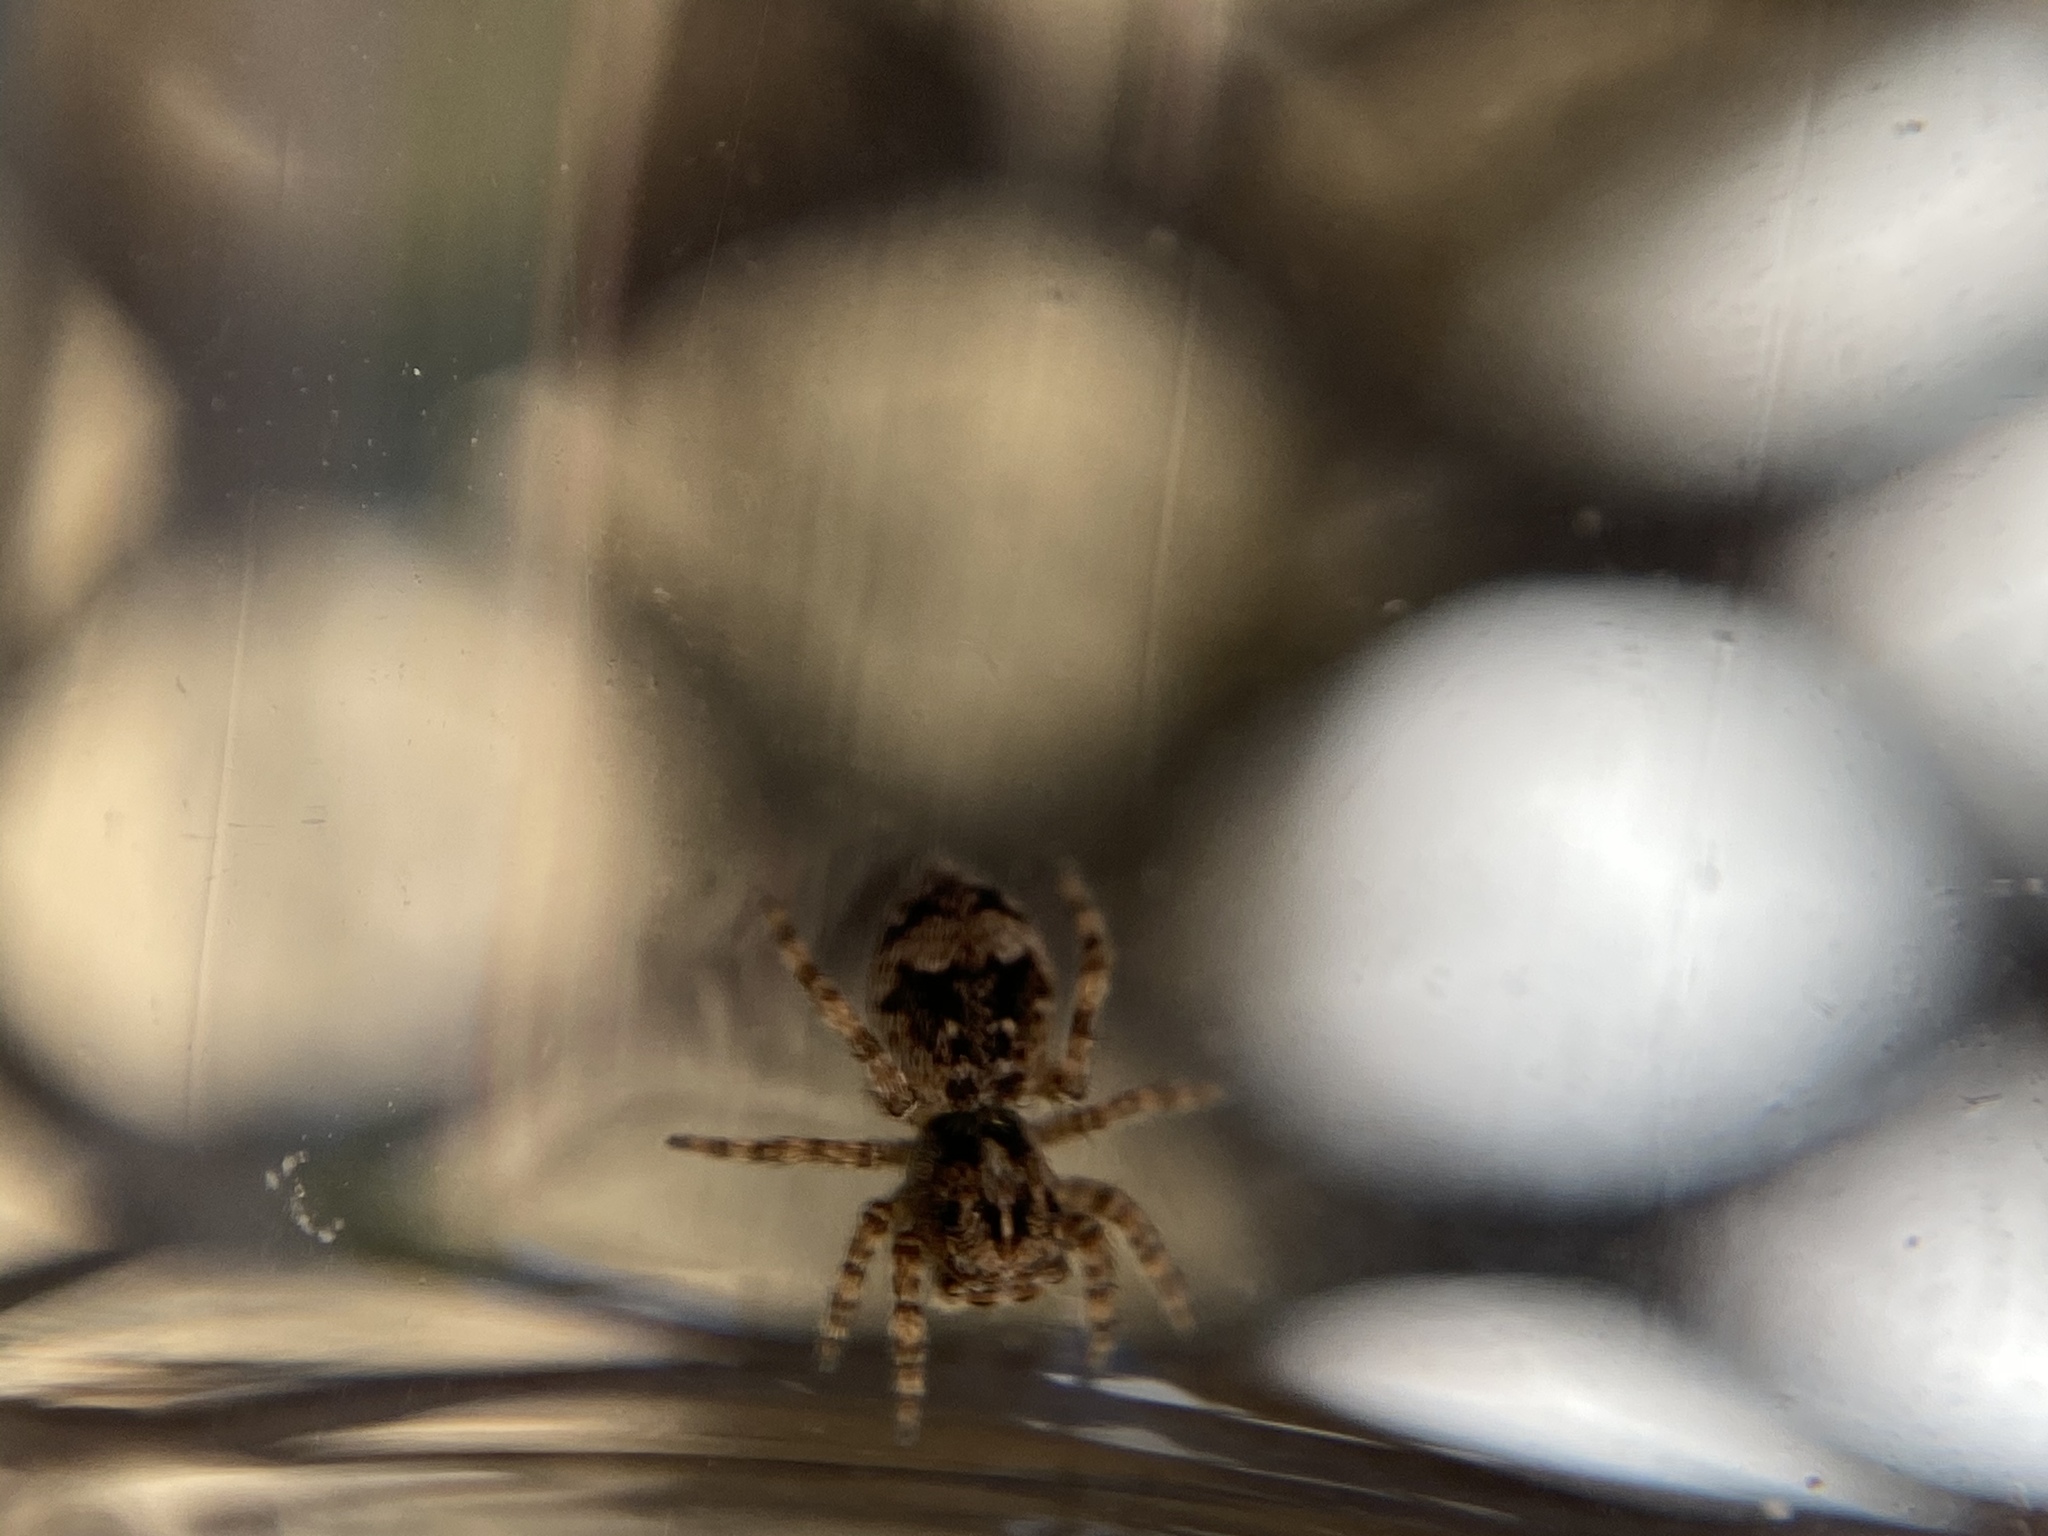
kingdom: Animalia
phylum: Arthropoda
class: Arachnida
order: Araneae
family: Salticidae
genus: Attulus
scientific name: Attulus fasciger
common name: Asiatic wall jumping spider
